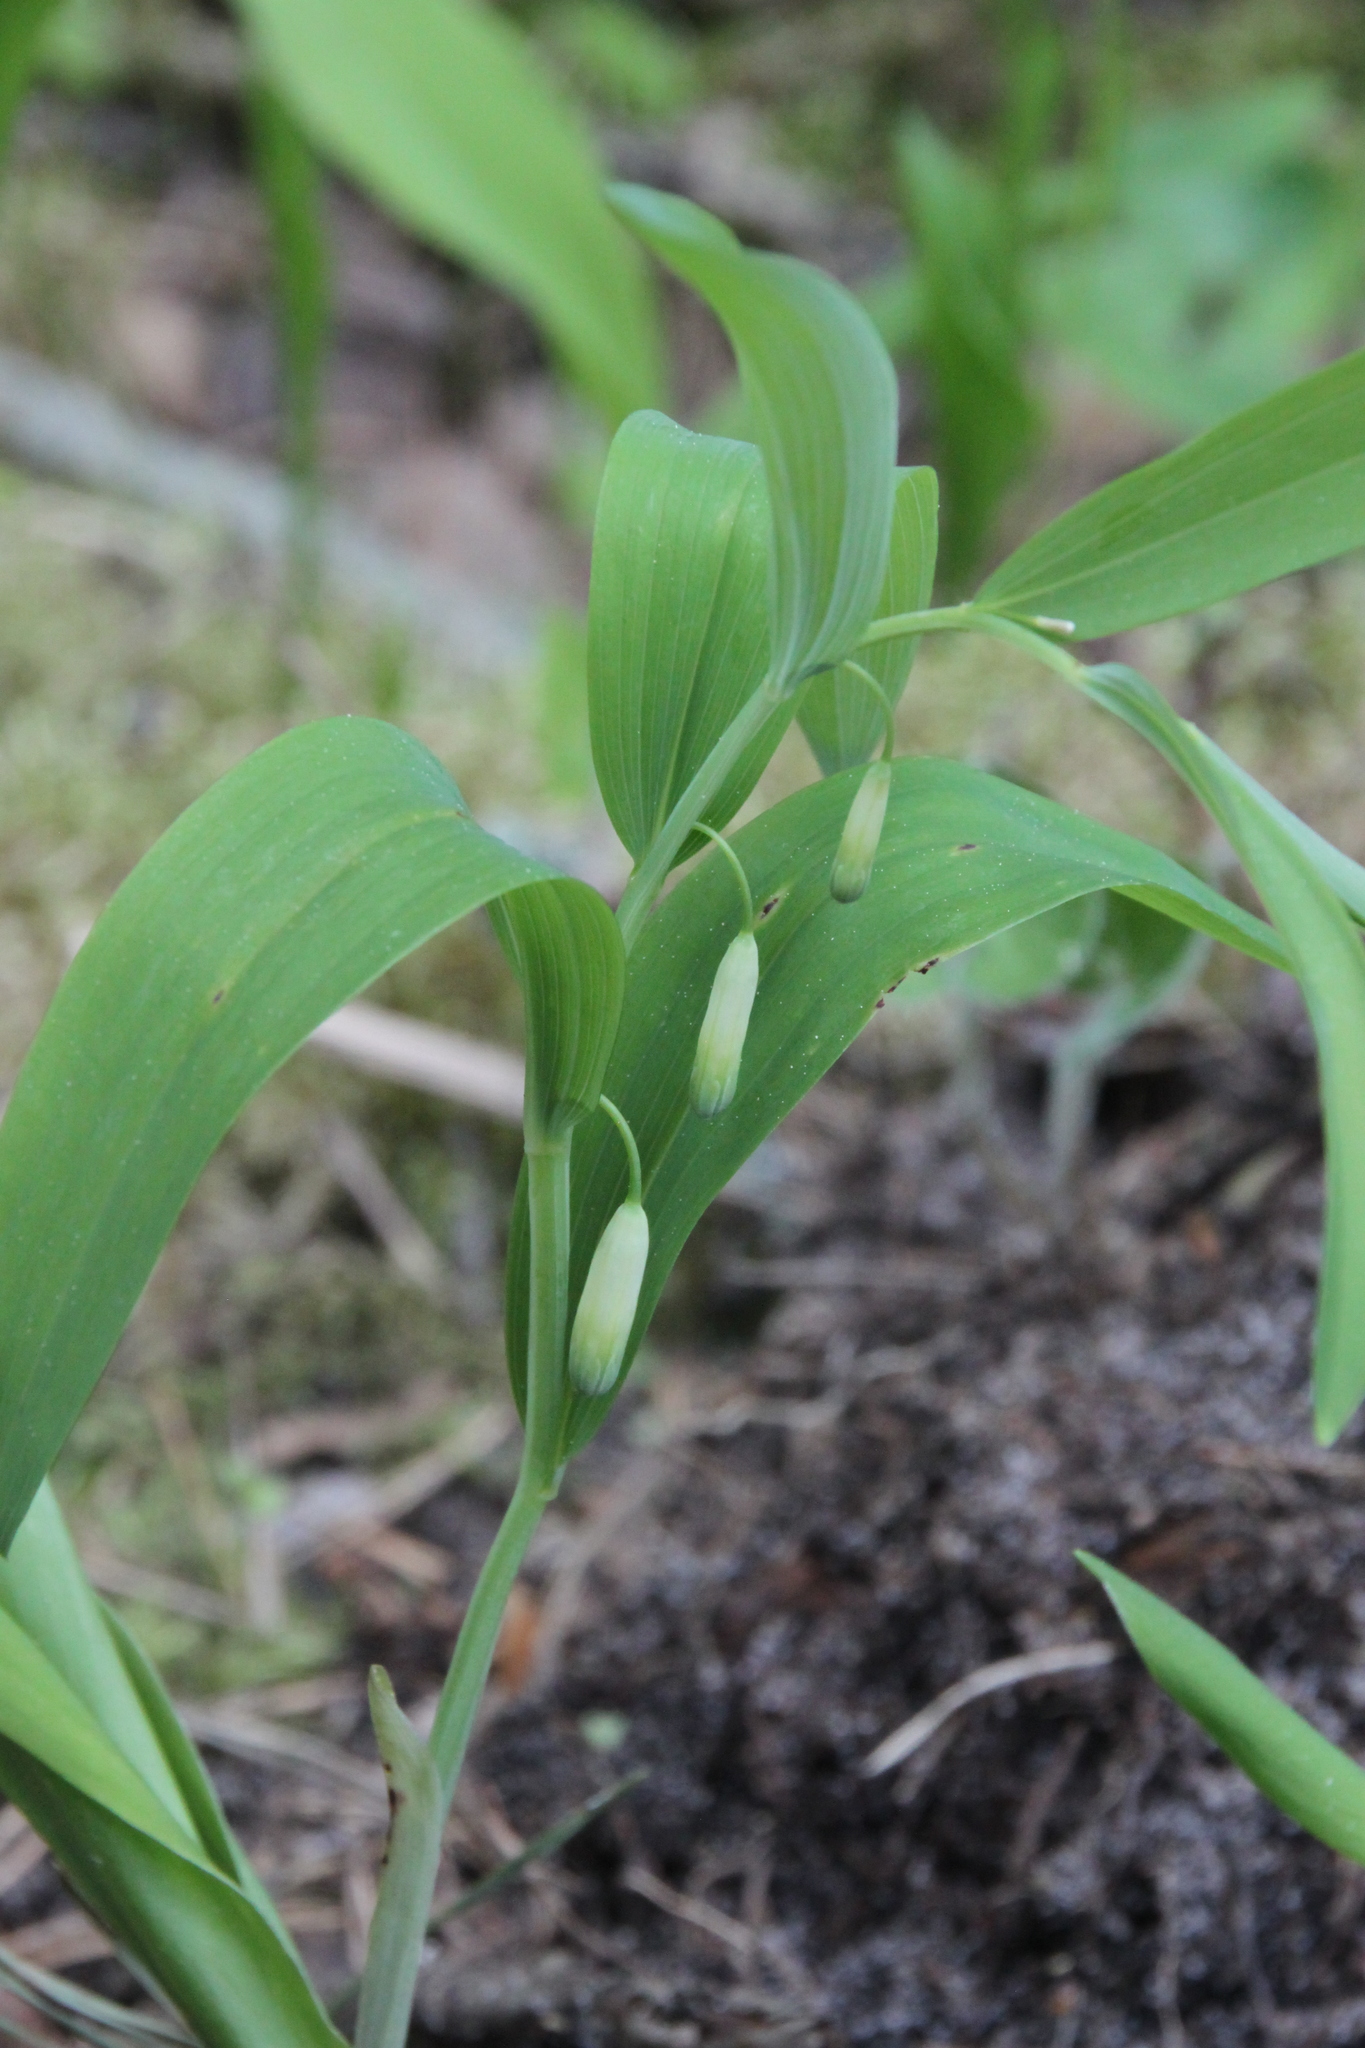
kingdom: Plantae
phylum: Tracheophyta
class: Liliopsida
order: Asparagales
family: Asparagaceae
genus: Polygonatum
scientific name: Polygonatum odoratum
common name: Angular solomon's-seal
